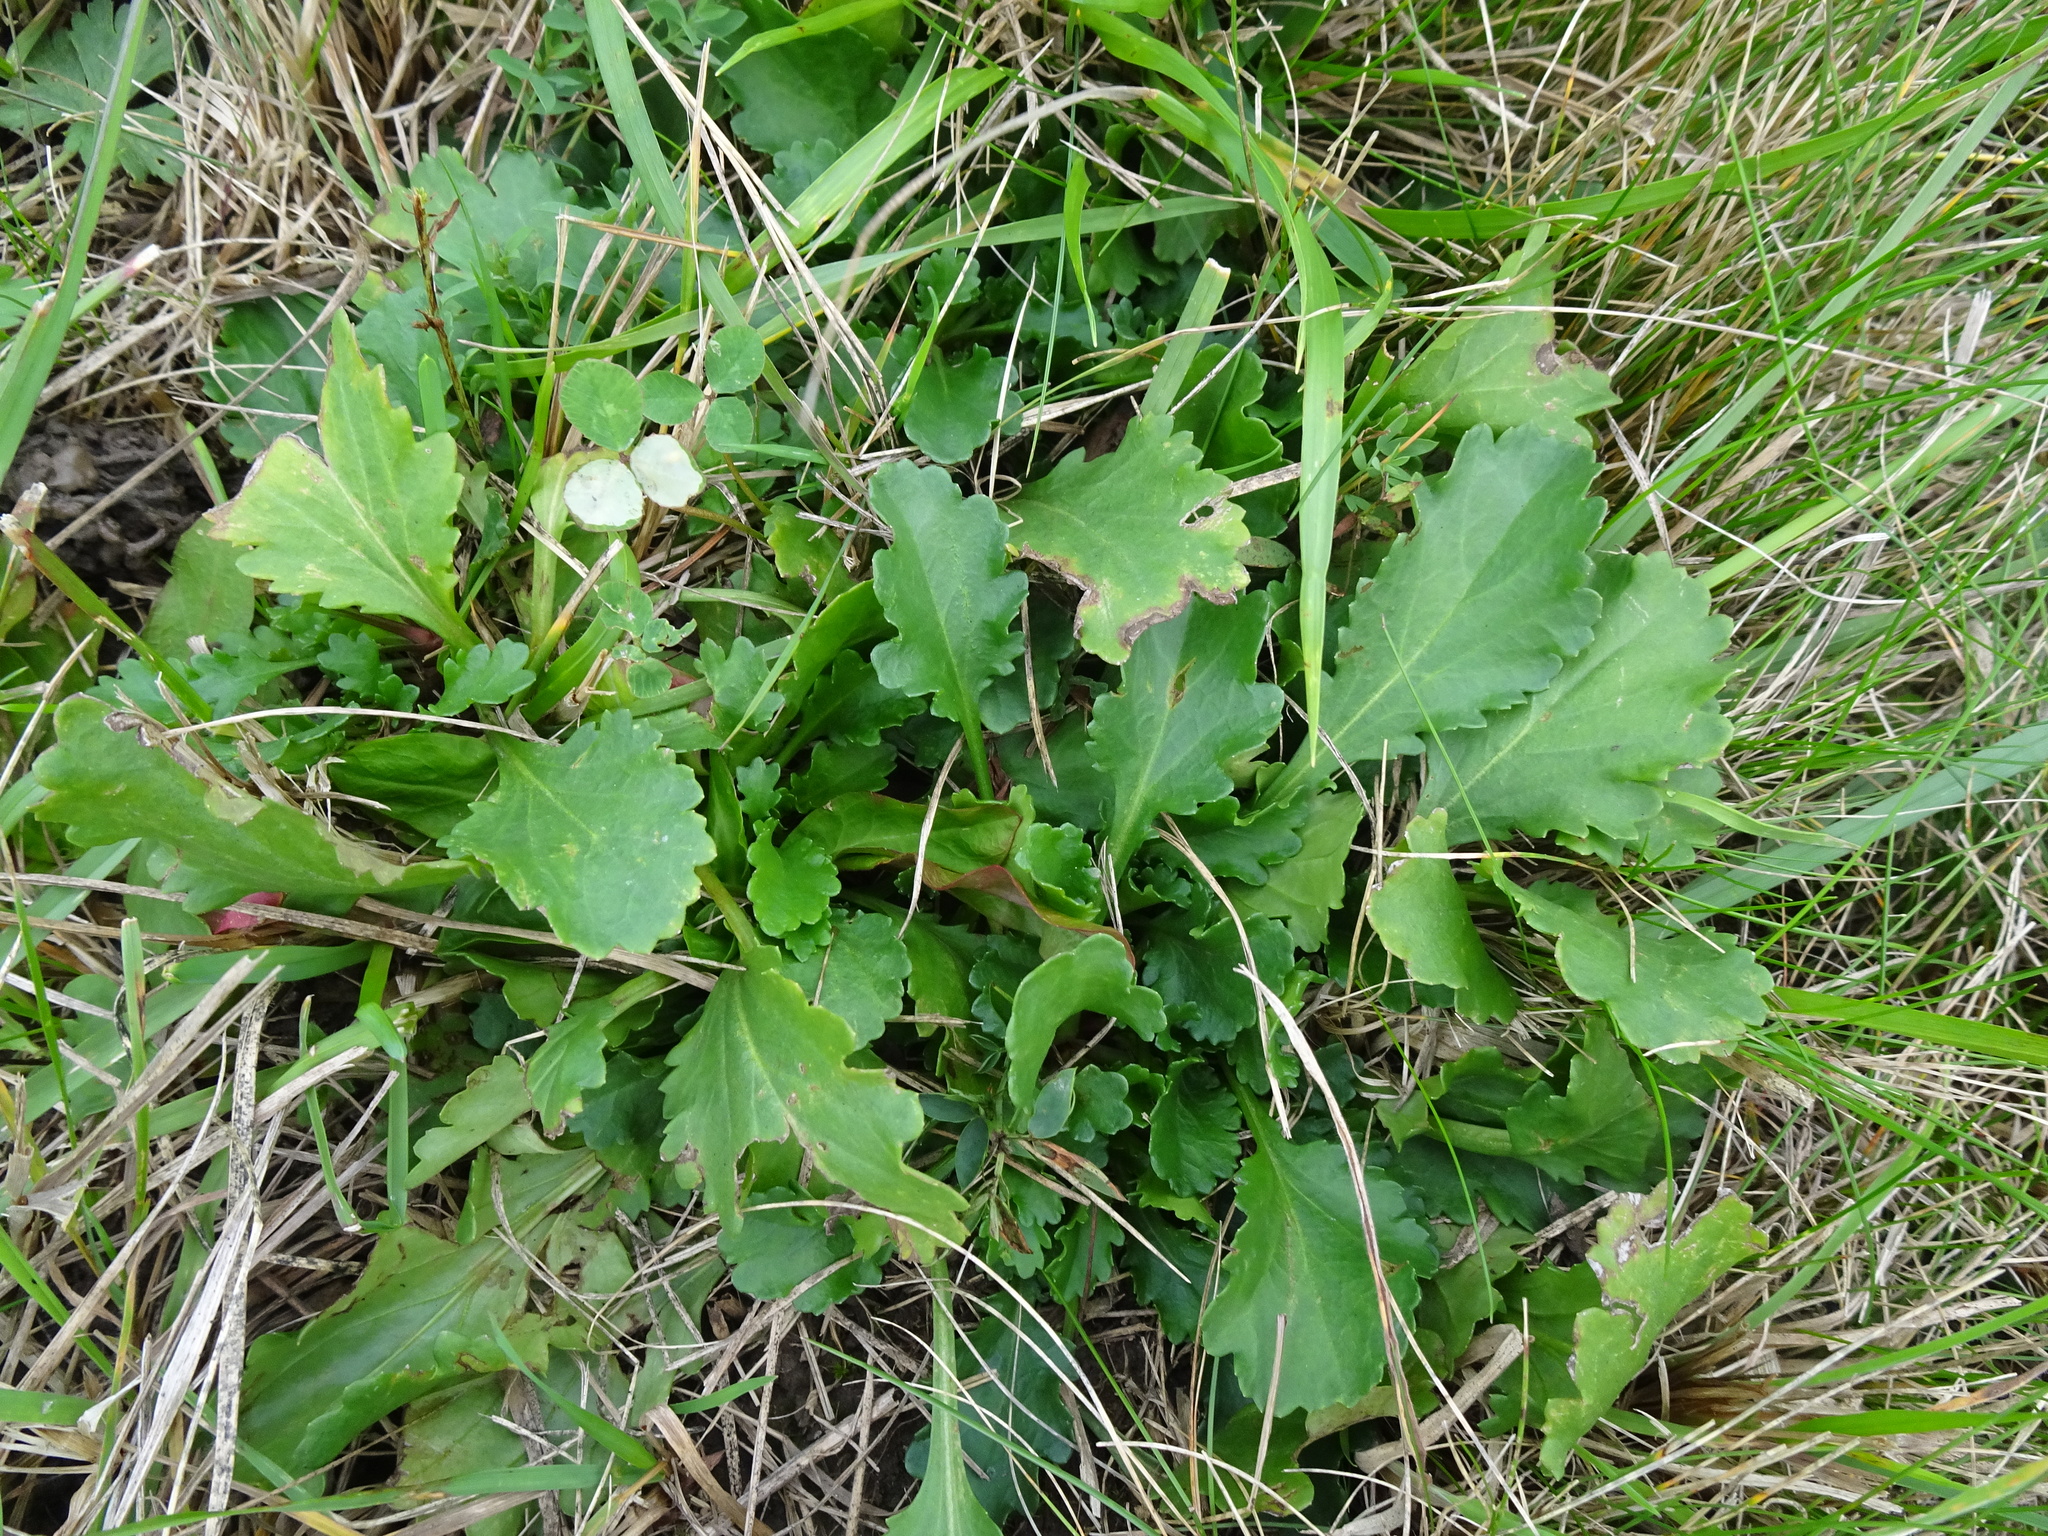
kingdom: Plantae
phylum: Tracheophyta
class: Magnoliopsida
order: Asterales
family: Asteraceae
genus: Leucanthemum
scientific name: Leucanthemum vulgare
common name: Oxeye daisy
